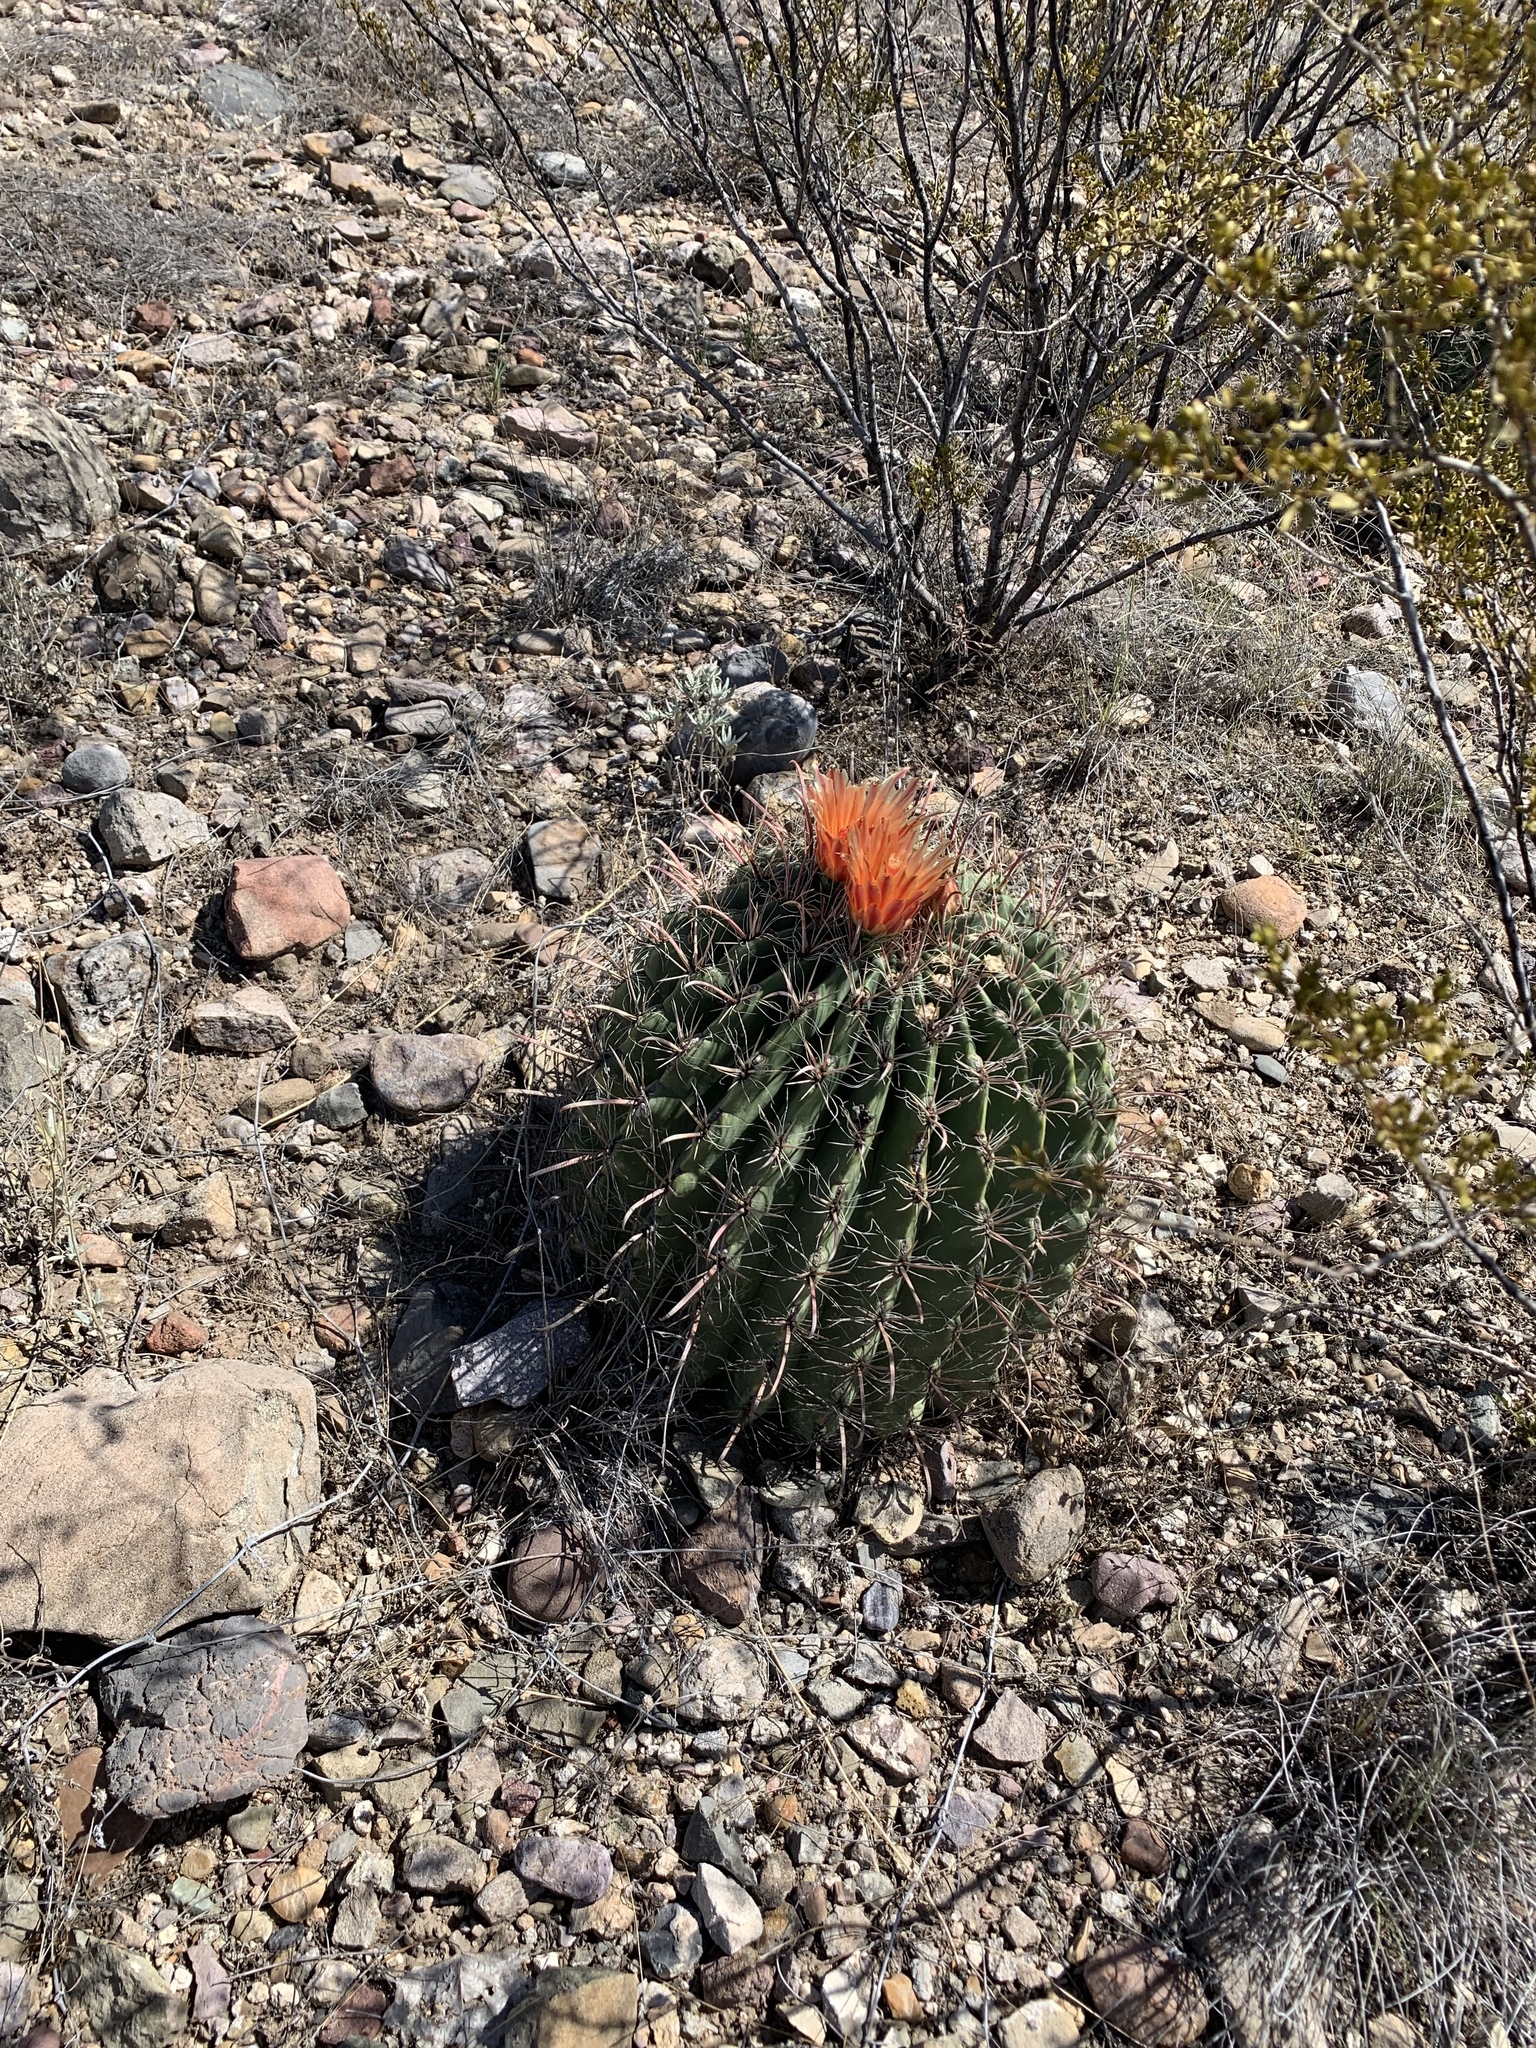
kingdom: Plantae
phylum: Tracheophyta
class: Magnoliopsida
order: Caryophyllales
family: Cactaceae
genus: Ferocactus
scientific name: Ferocactus wislizeni
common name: Candy barrel cactus
